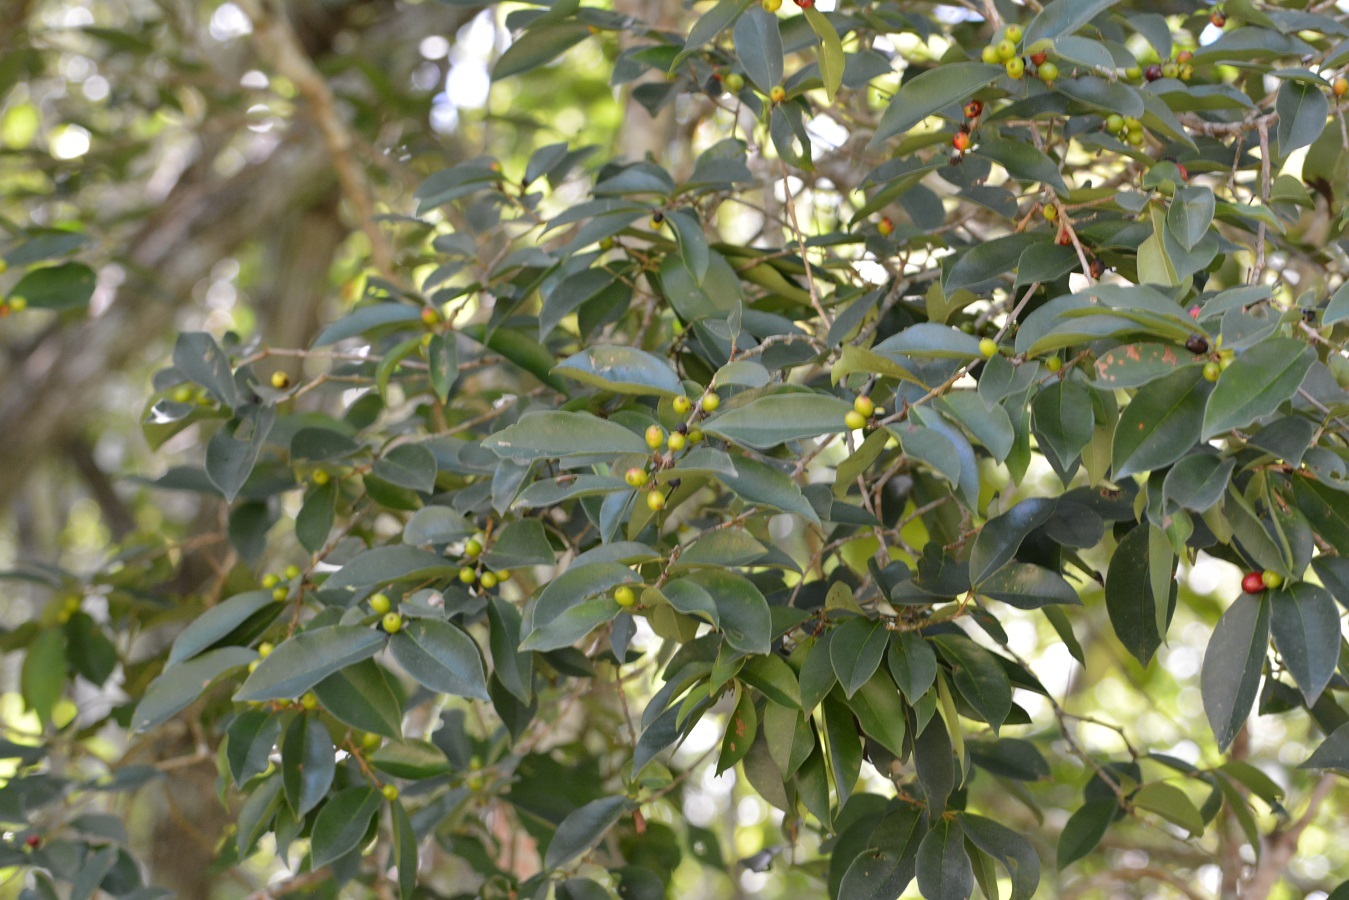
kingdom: Plantae
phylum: Tracheophyta
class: Magnoliopsida
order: Myrtales
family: Myrtaceae
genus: Eugenia
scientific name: Eugenia axillaris
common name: Choaky berry
